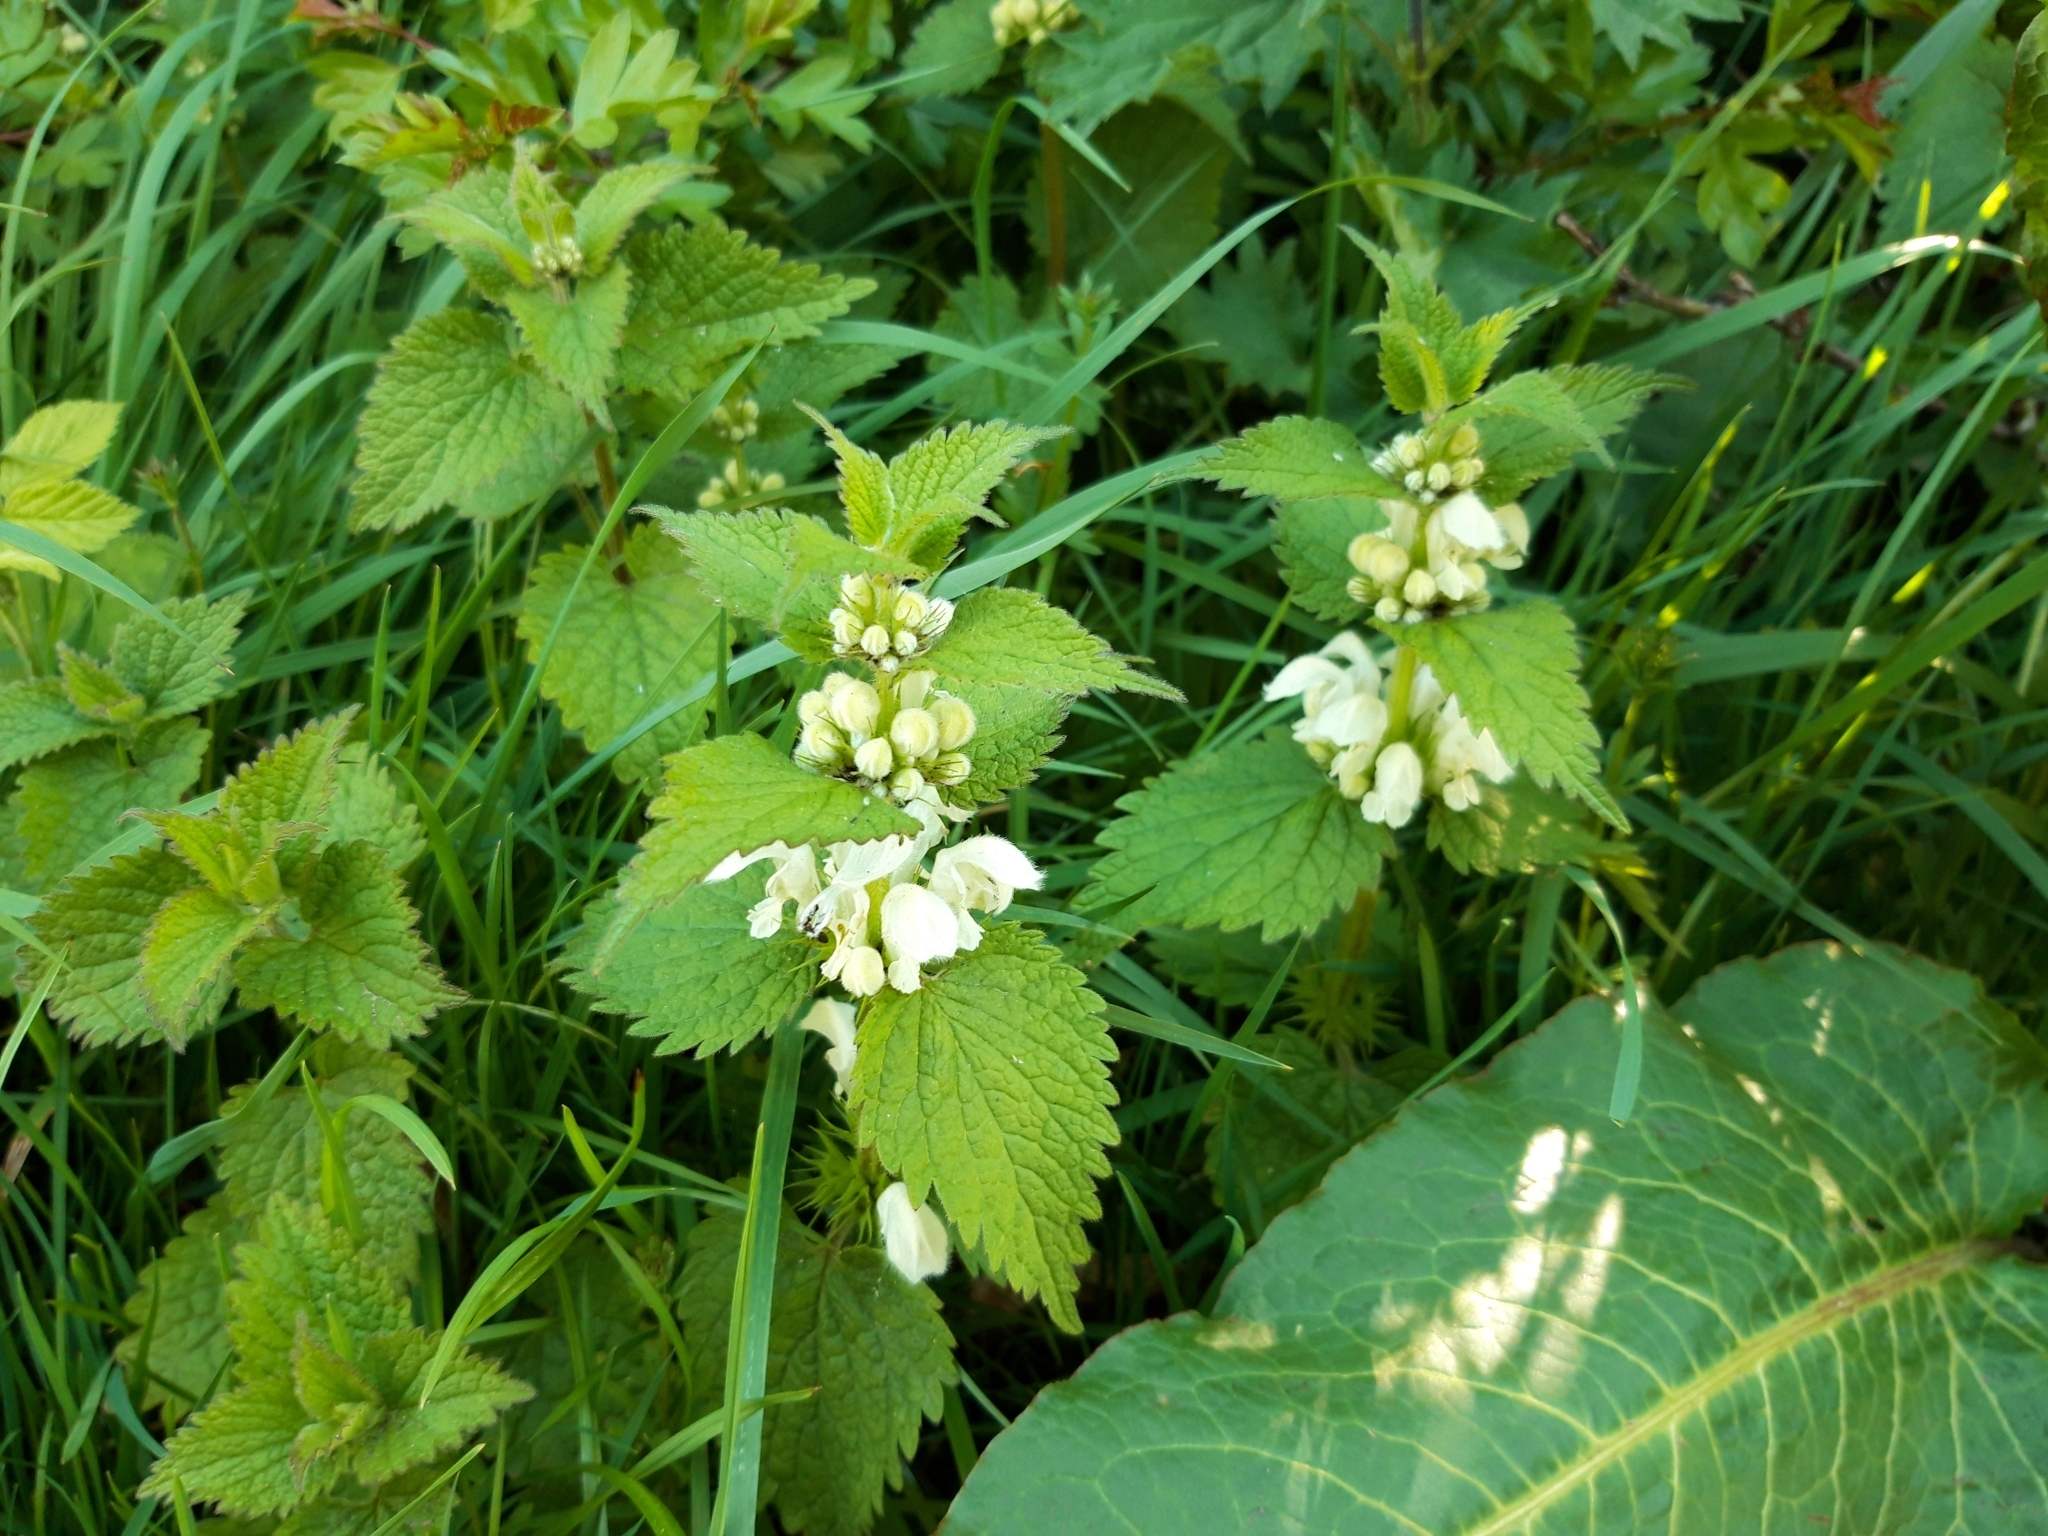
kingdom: Plantae
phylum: Tracheophyta
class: Magnoliopsida
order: Lamiales
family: Lamiaceae
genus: Lamium
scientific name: Lamium album
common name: White dead-nettle
